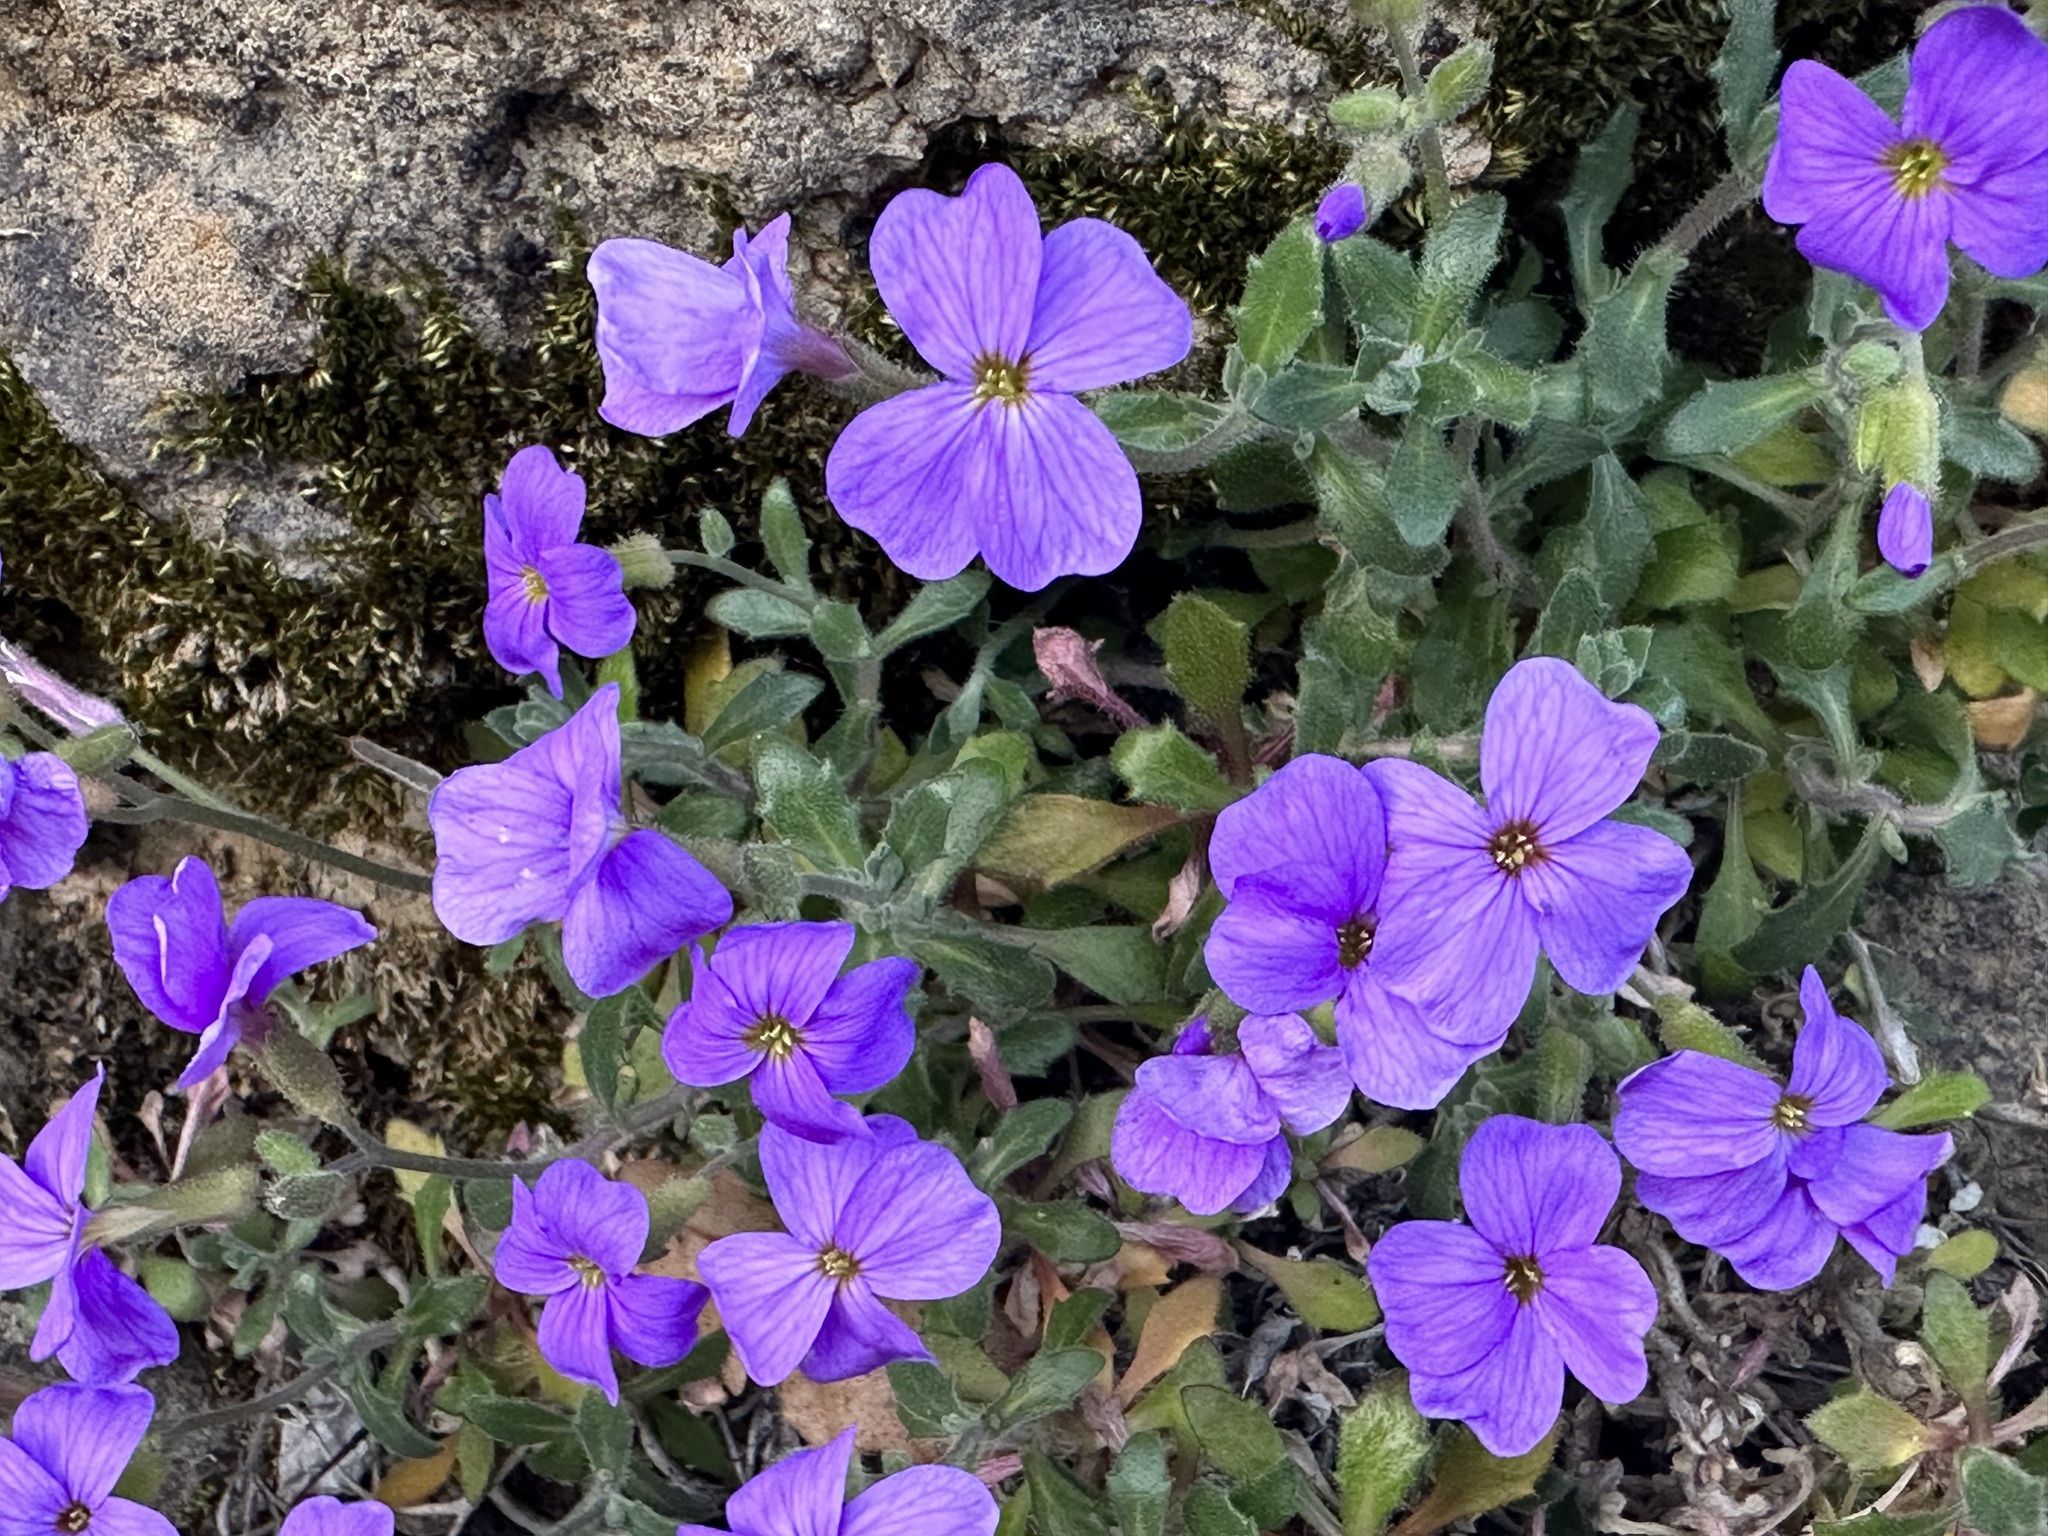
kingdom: Plantae
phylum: Tracheophyta
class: Magnoliopsida
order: Brassicales
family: Brassicaceae
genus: Aubrieta
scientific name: Aubrieta deltoidea
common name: Aubretia
